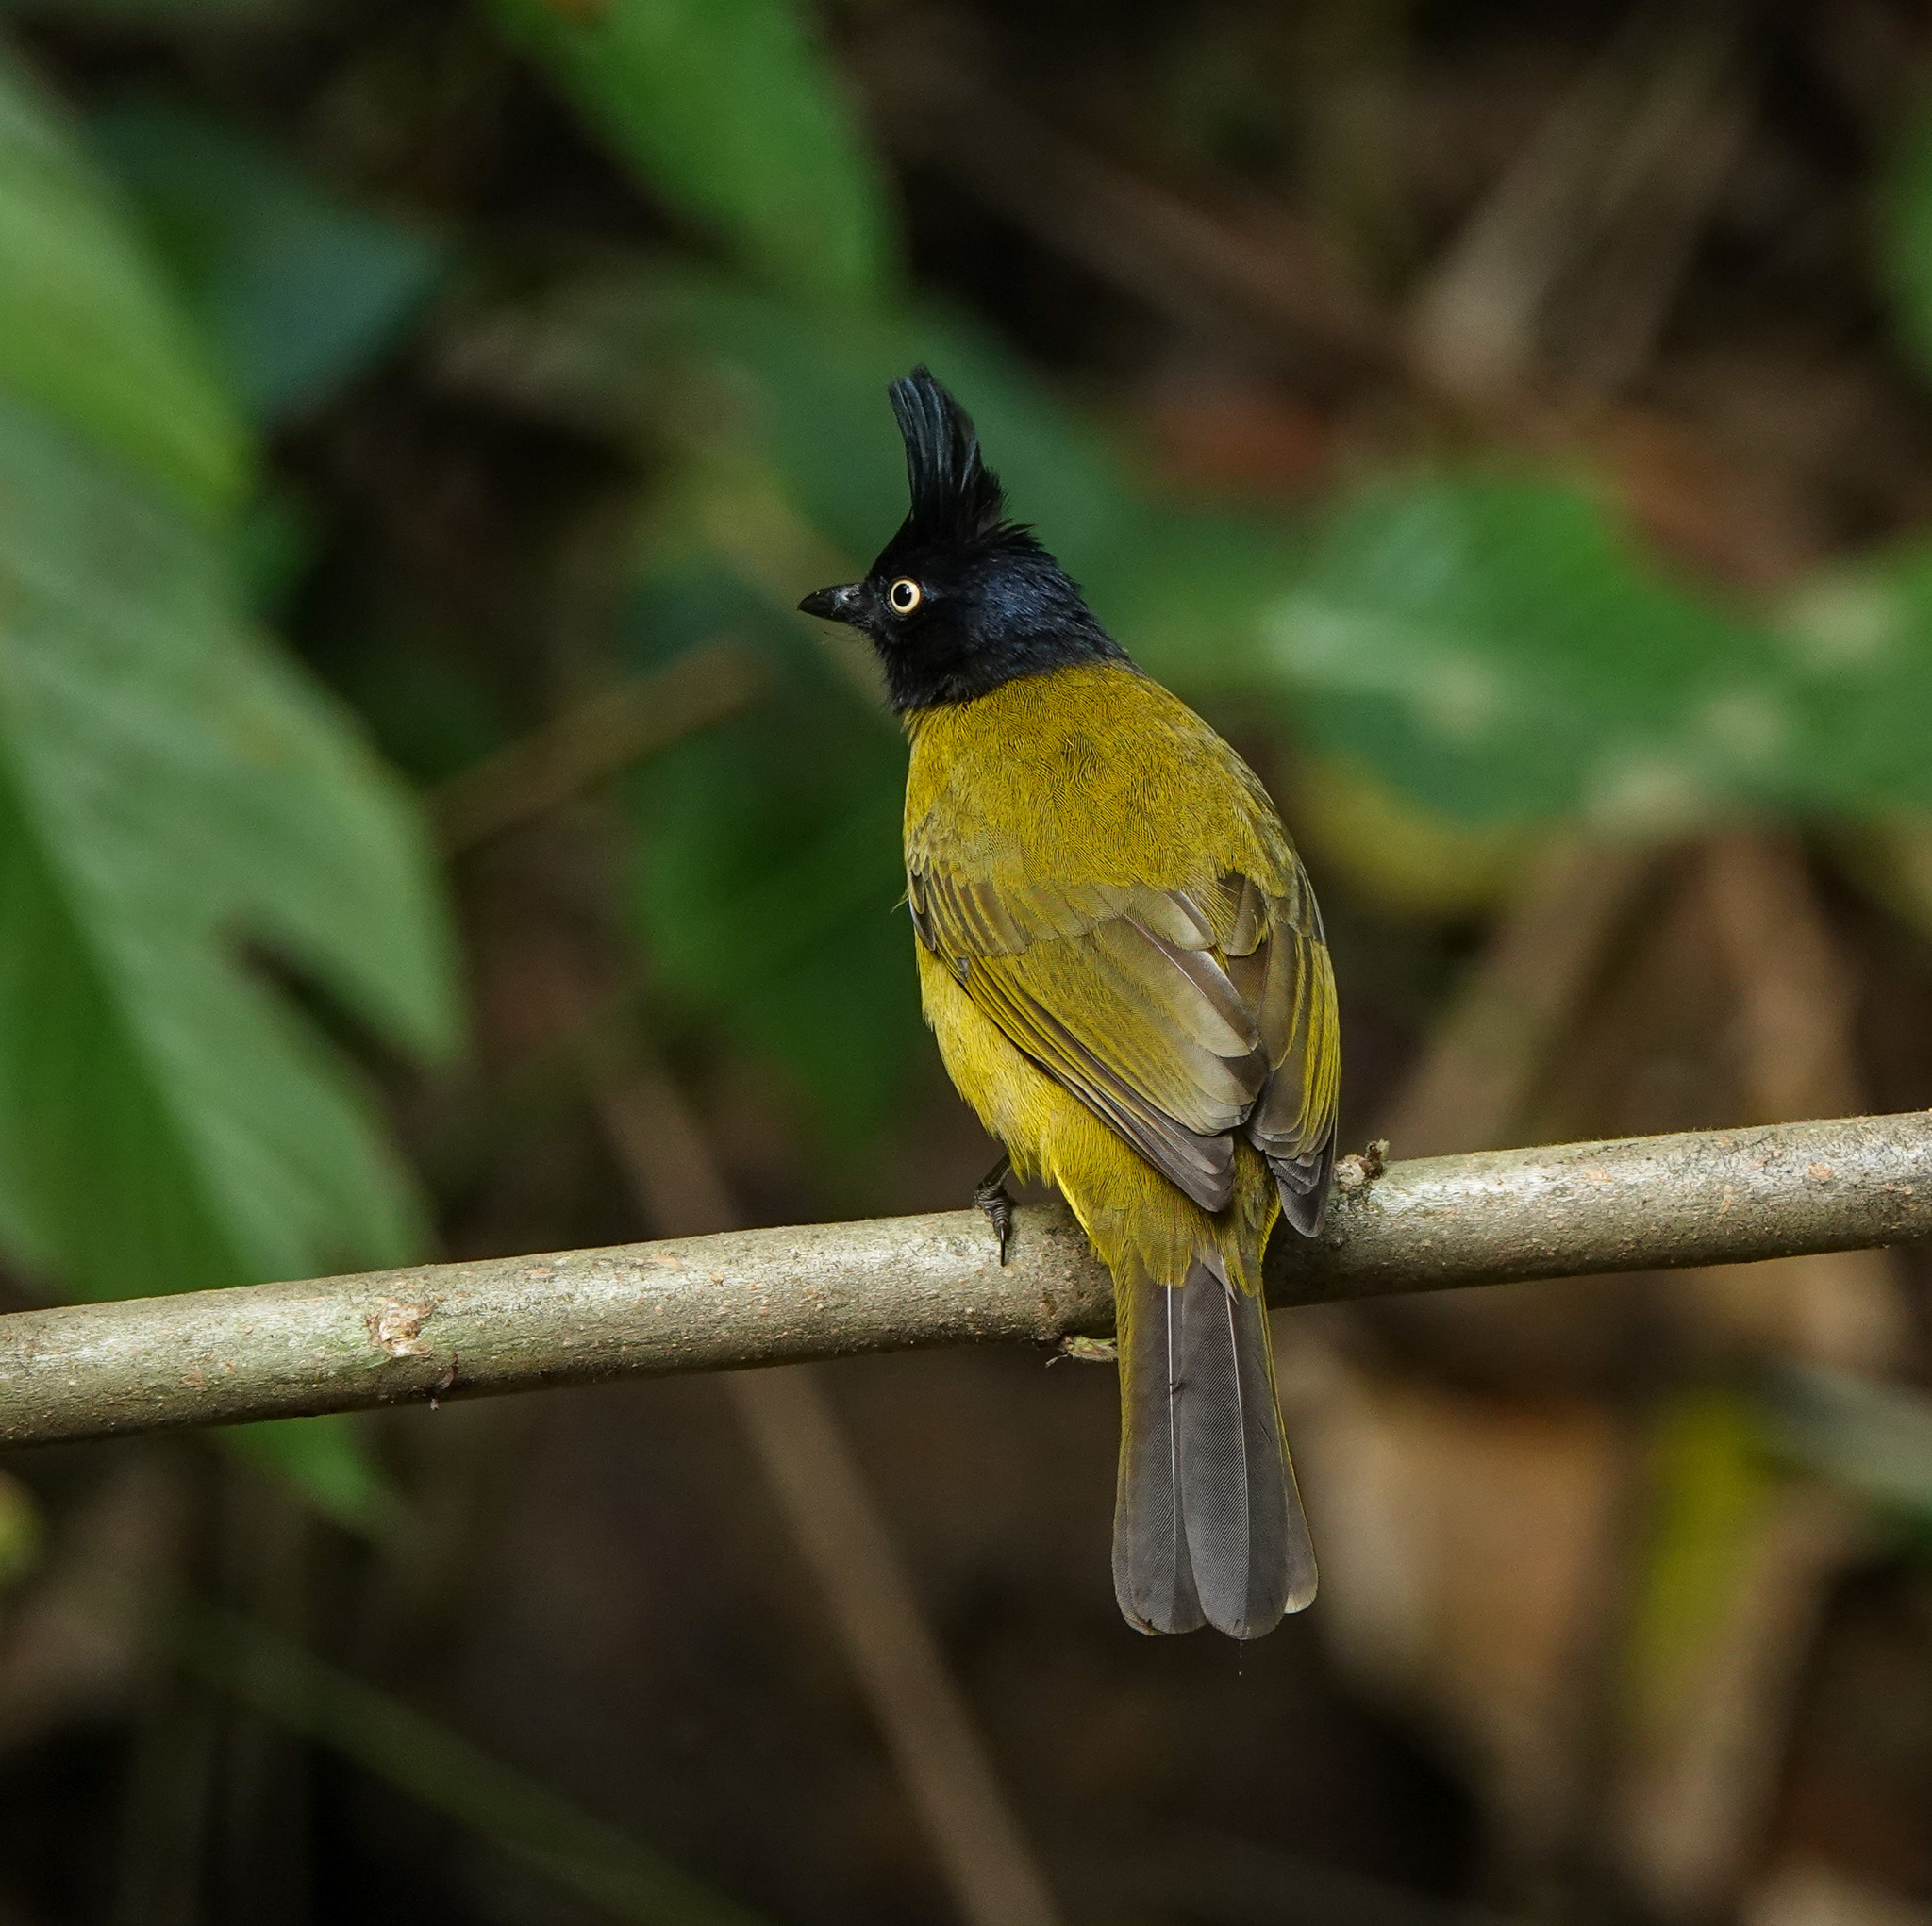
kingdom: Animalia
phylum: Chordata
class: Aves
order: Passeriformes
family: Pycnonotidae
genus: Pycnonotus
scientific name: Pycnonotus flaviventris
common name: Black-crested bulbul
